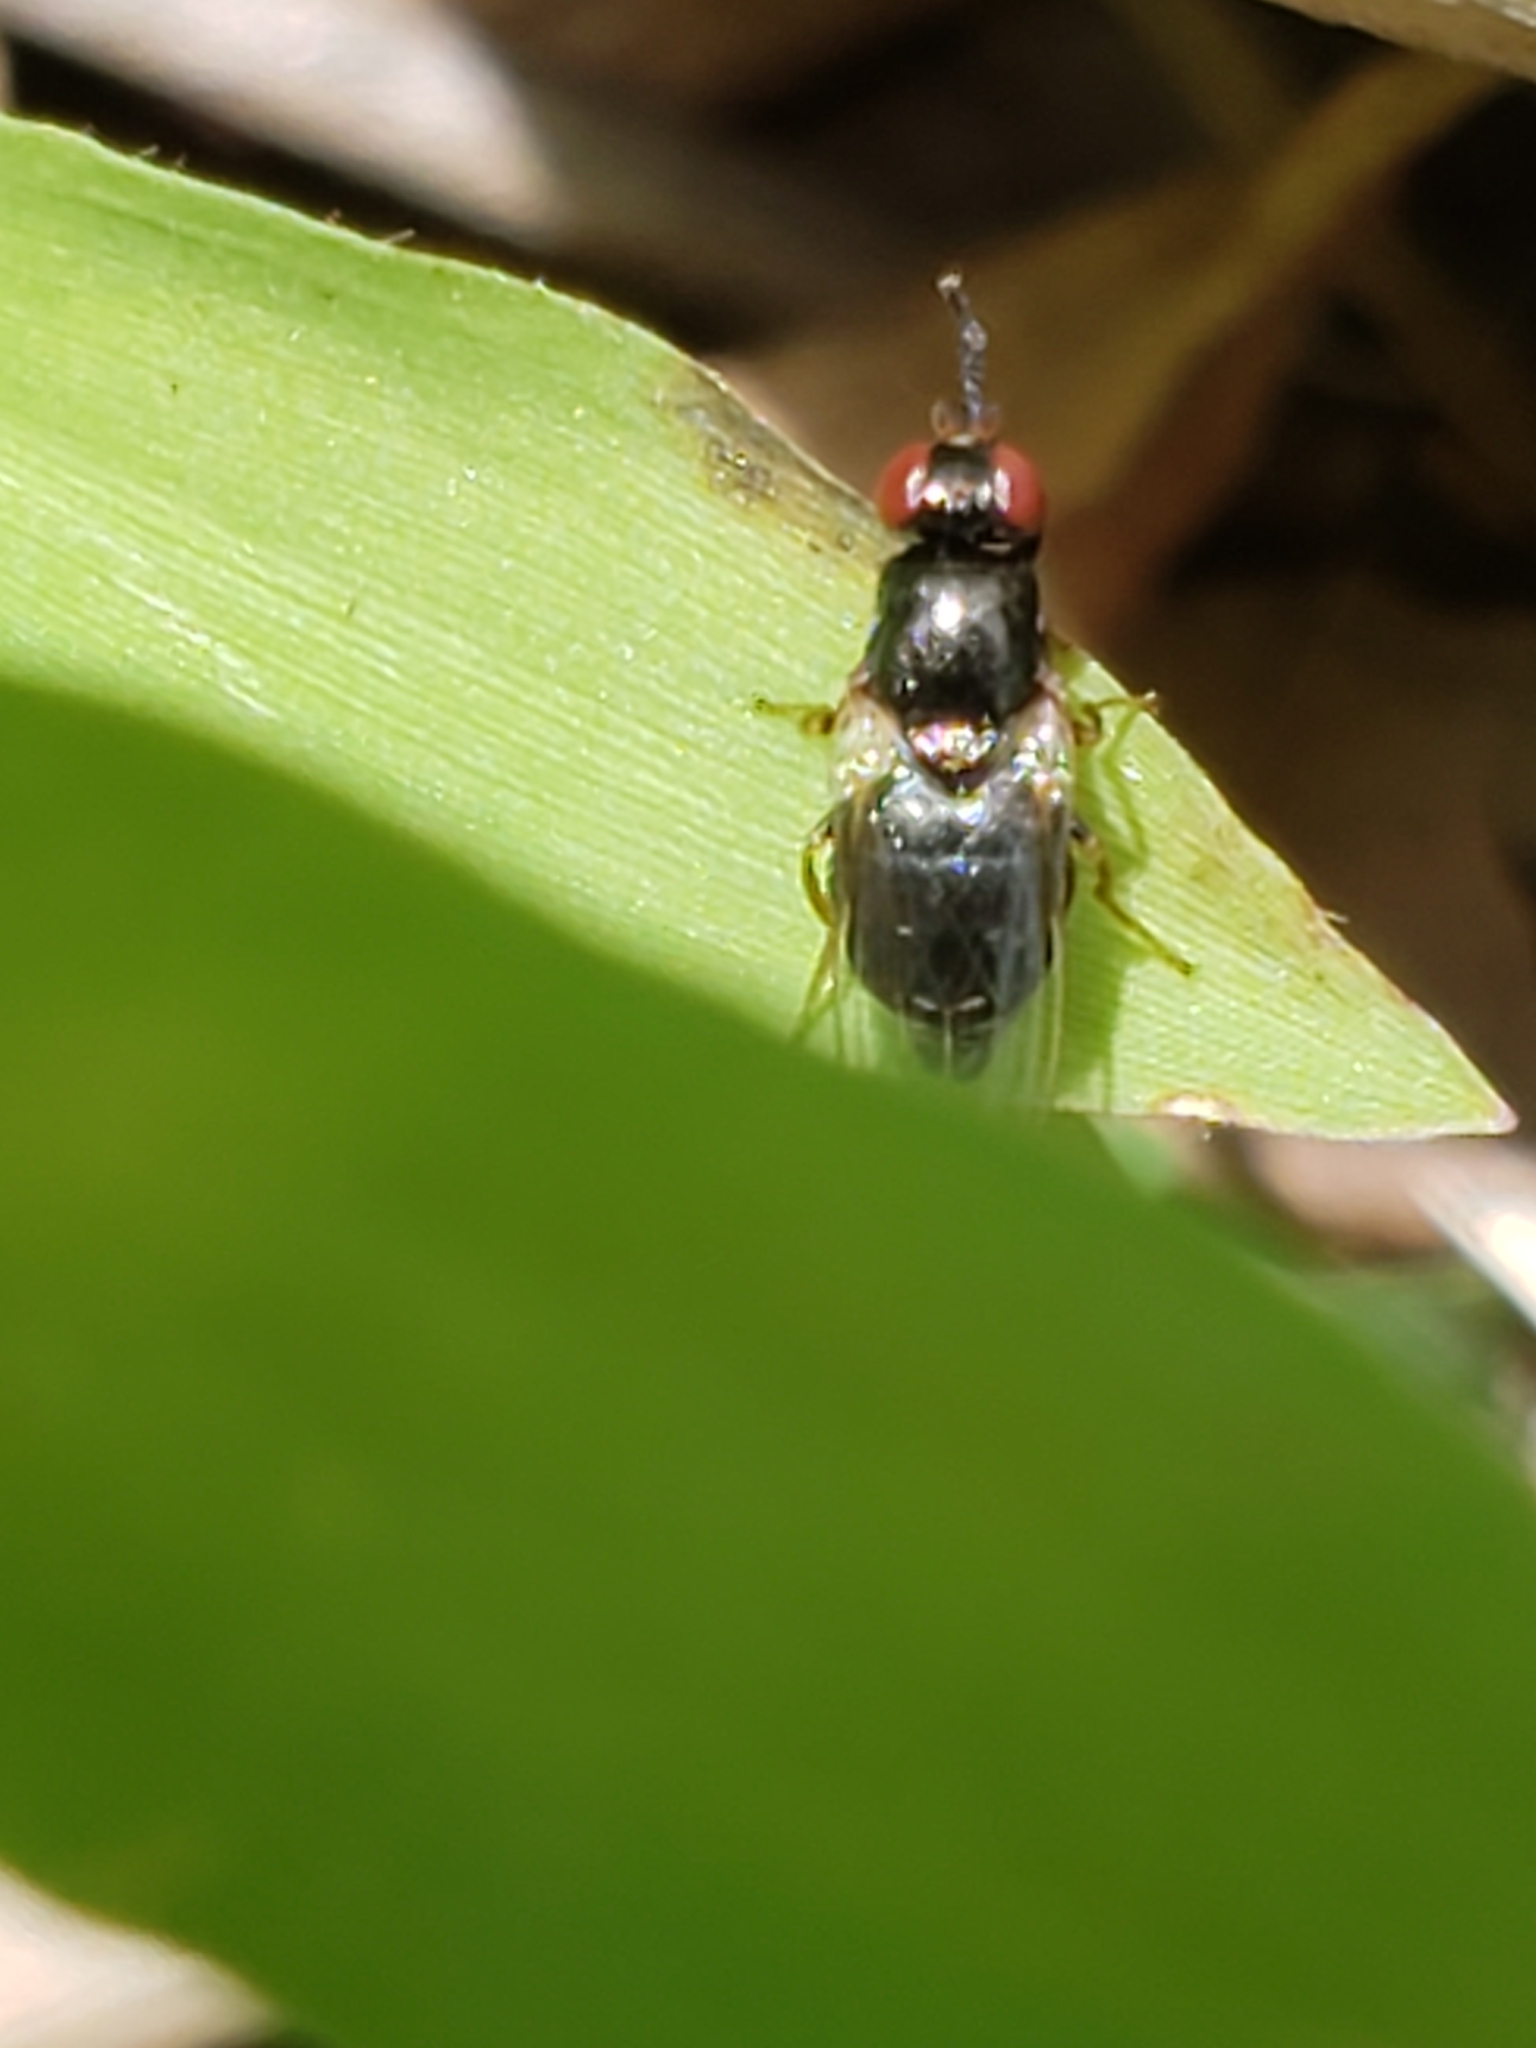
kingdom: Animalia
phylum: Arthropoda
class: Insecta
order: Diptera
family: Piophilidae
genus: Stearibia
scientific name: Stearibia nigriceps
